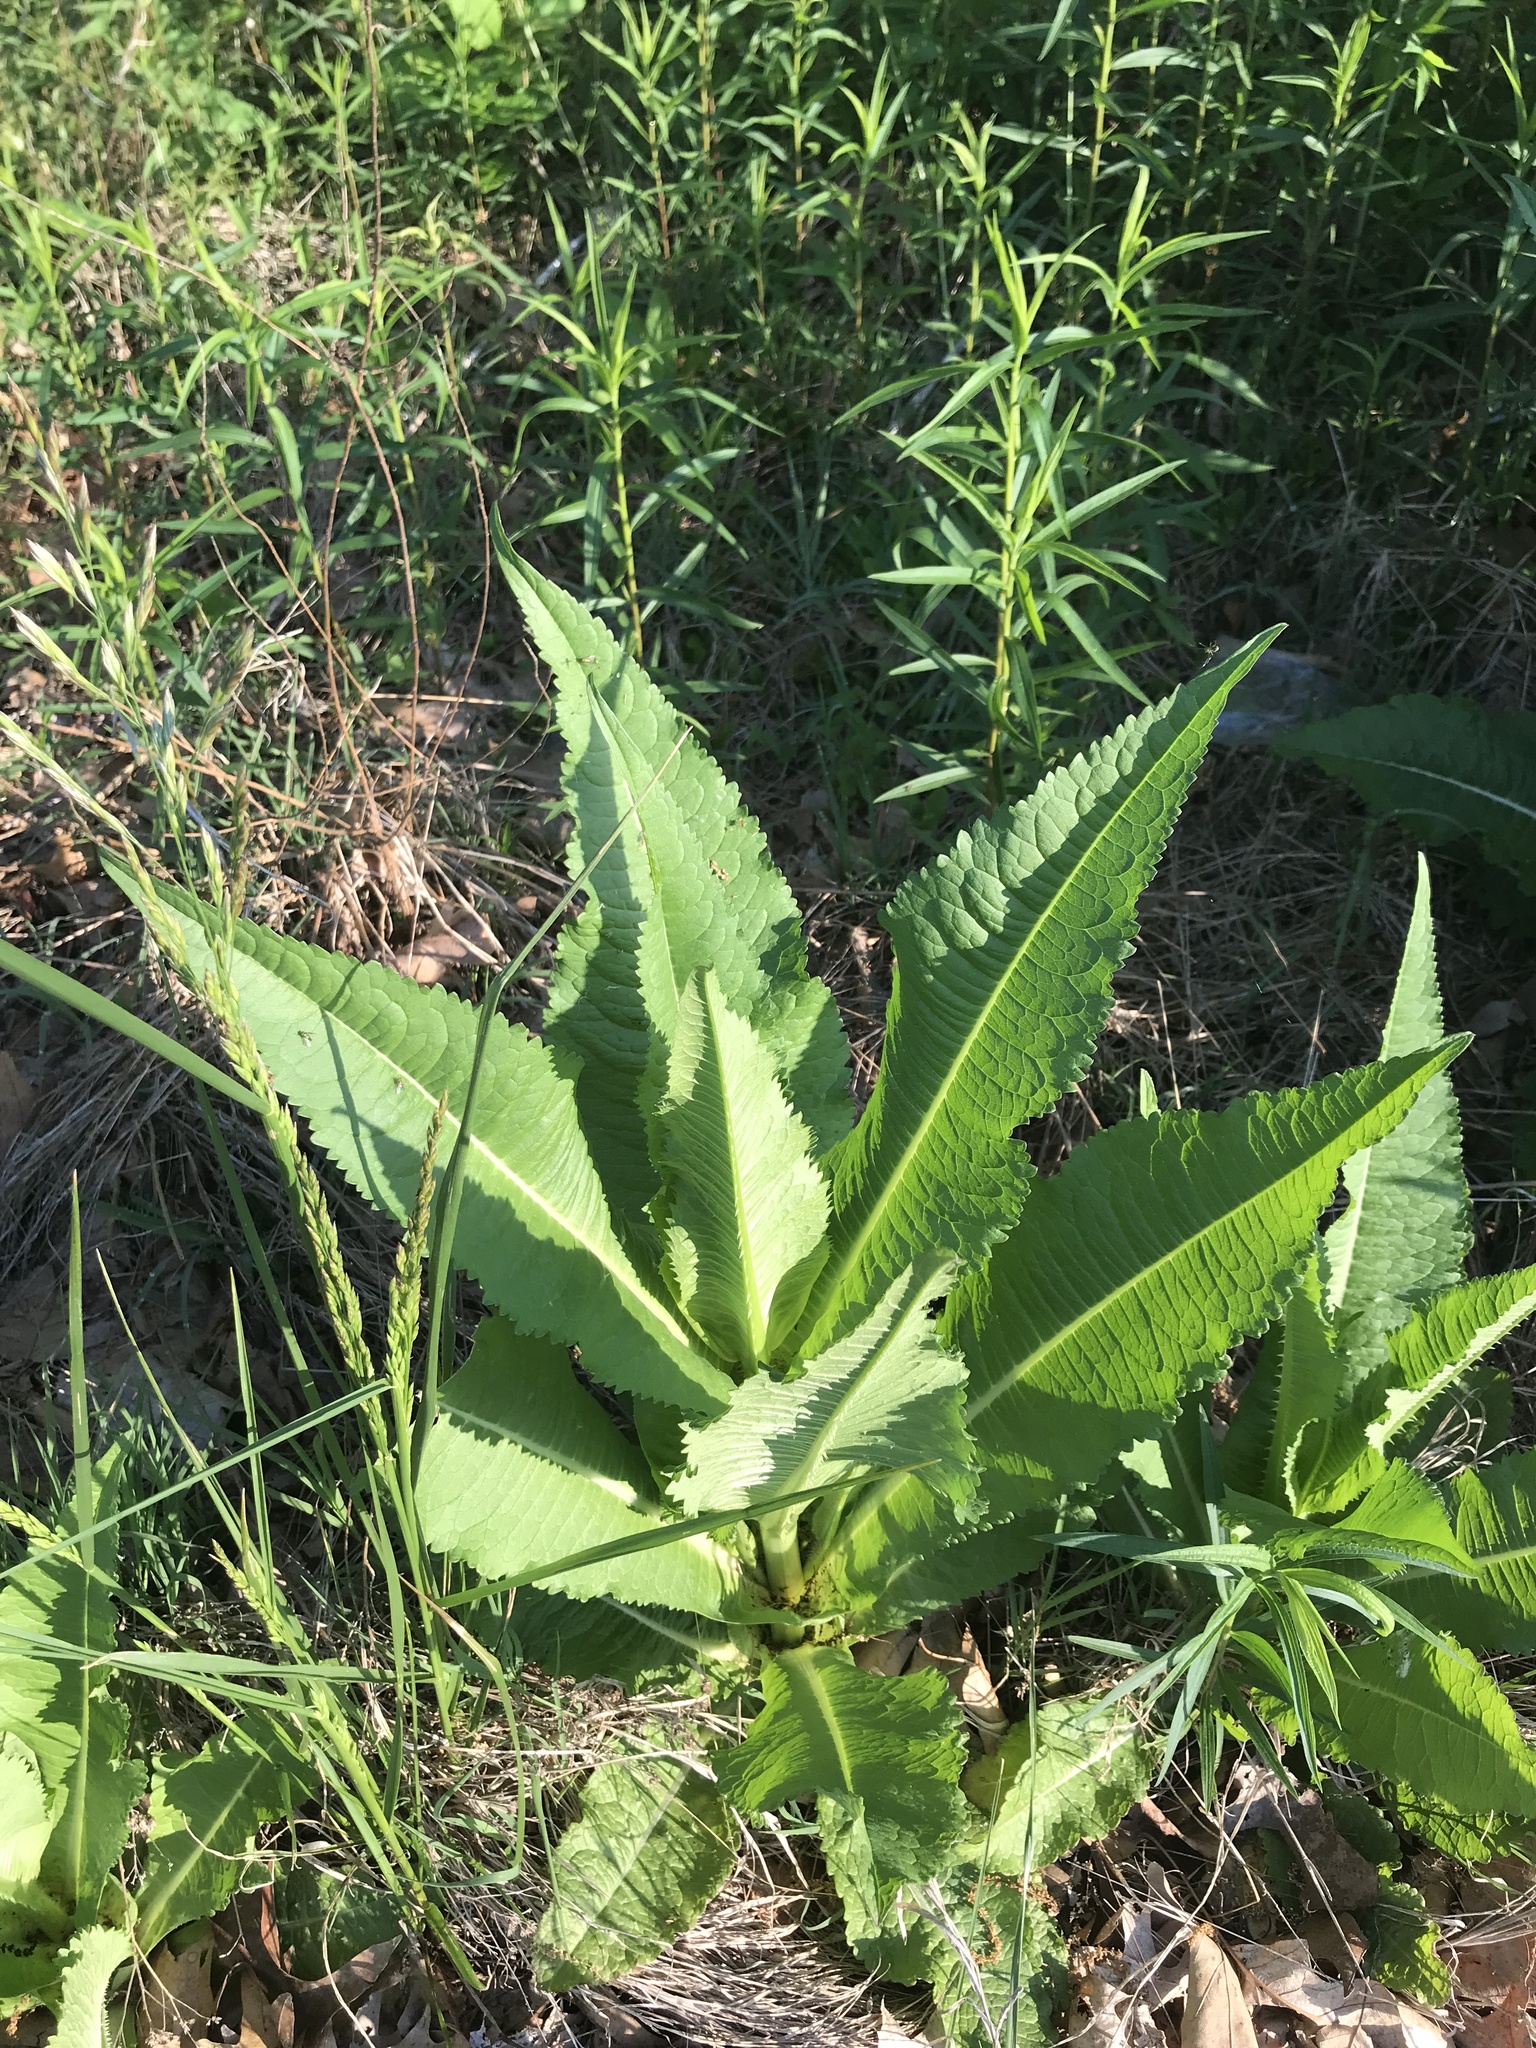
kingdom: Plantae
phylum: Tracheophyta
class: Magnoliopsida
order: Dipsacales
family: Caprifoliaceae
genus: Dipsacus
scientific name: Dipsacus fullonum
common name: Teasel
